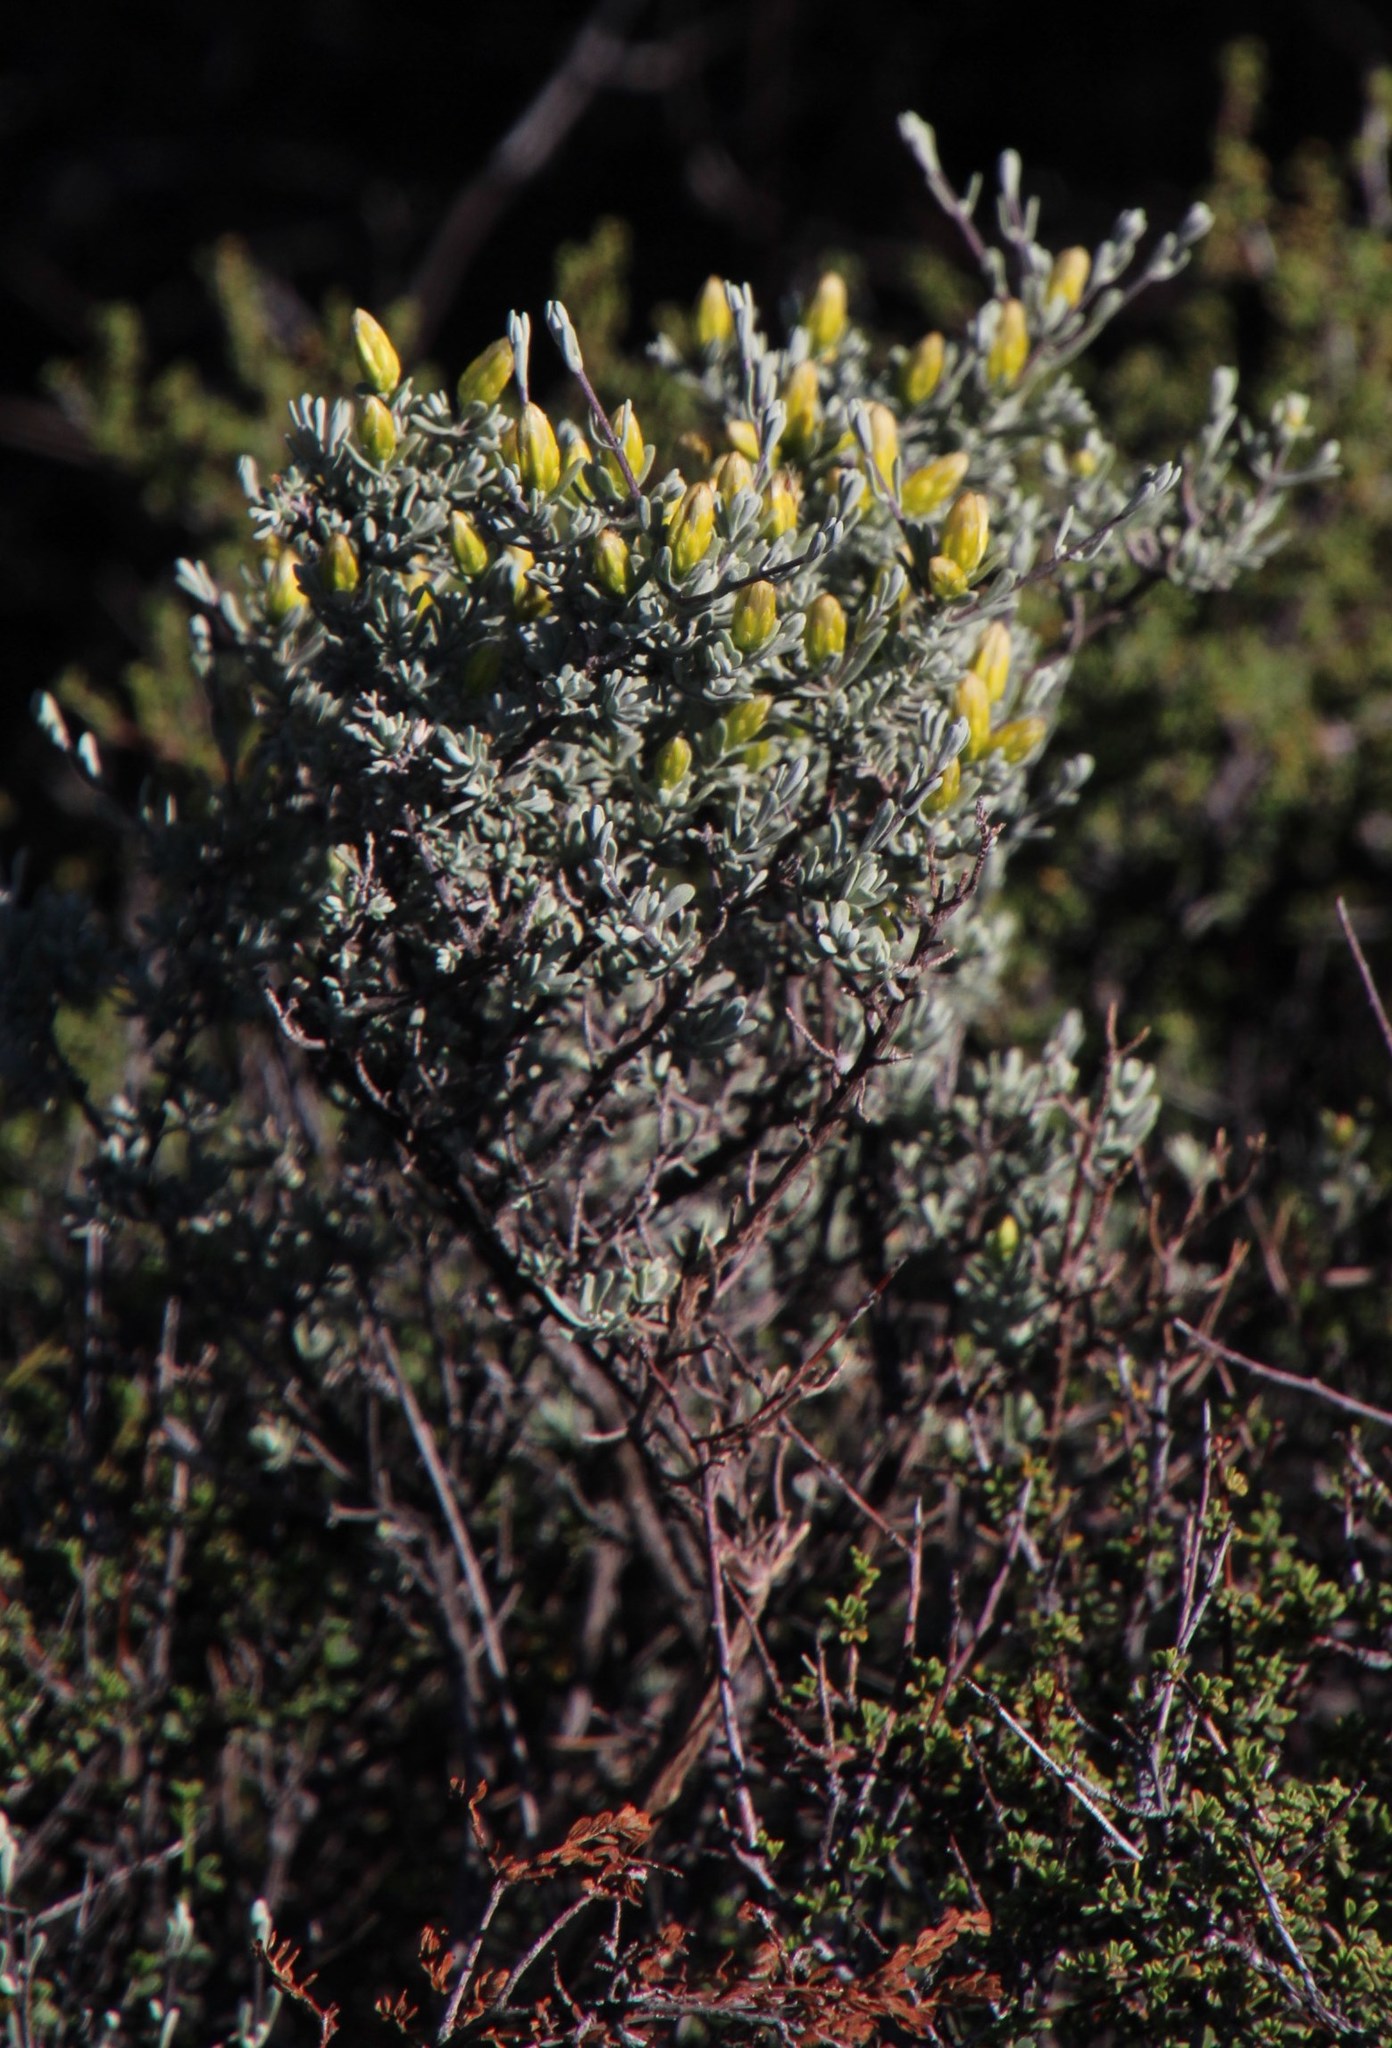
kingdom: Plantae
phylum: Tracheophyta
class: Magnoliopsida
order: Asterales
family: Asteraceae
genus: Pteronia
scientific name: Pteronia incana
